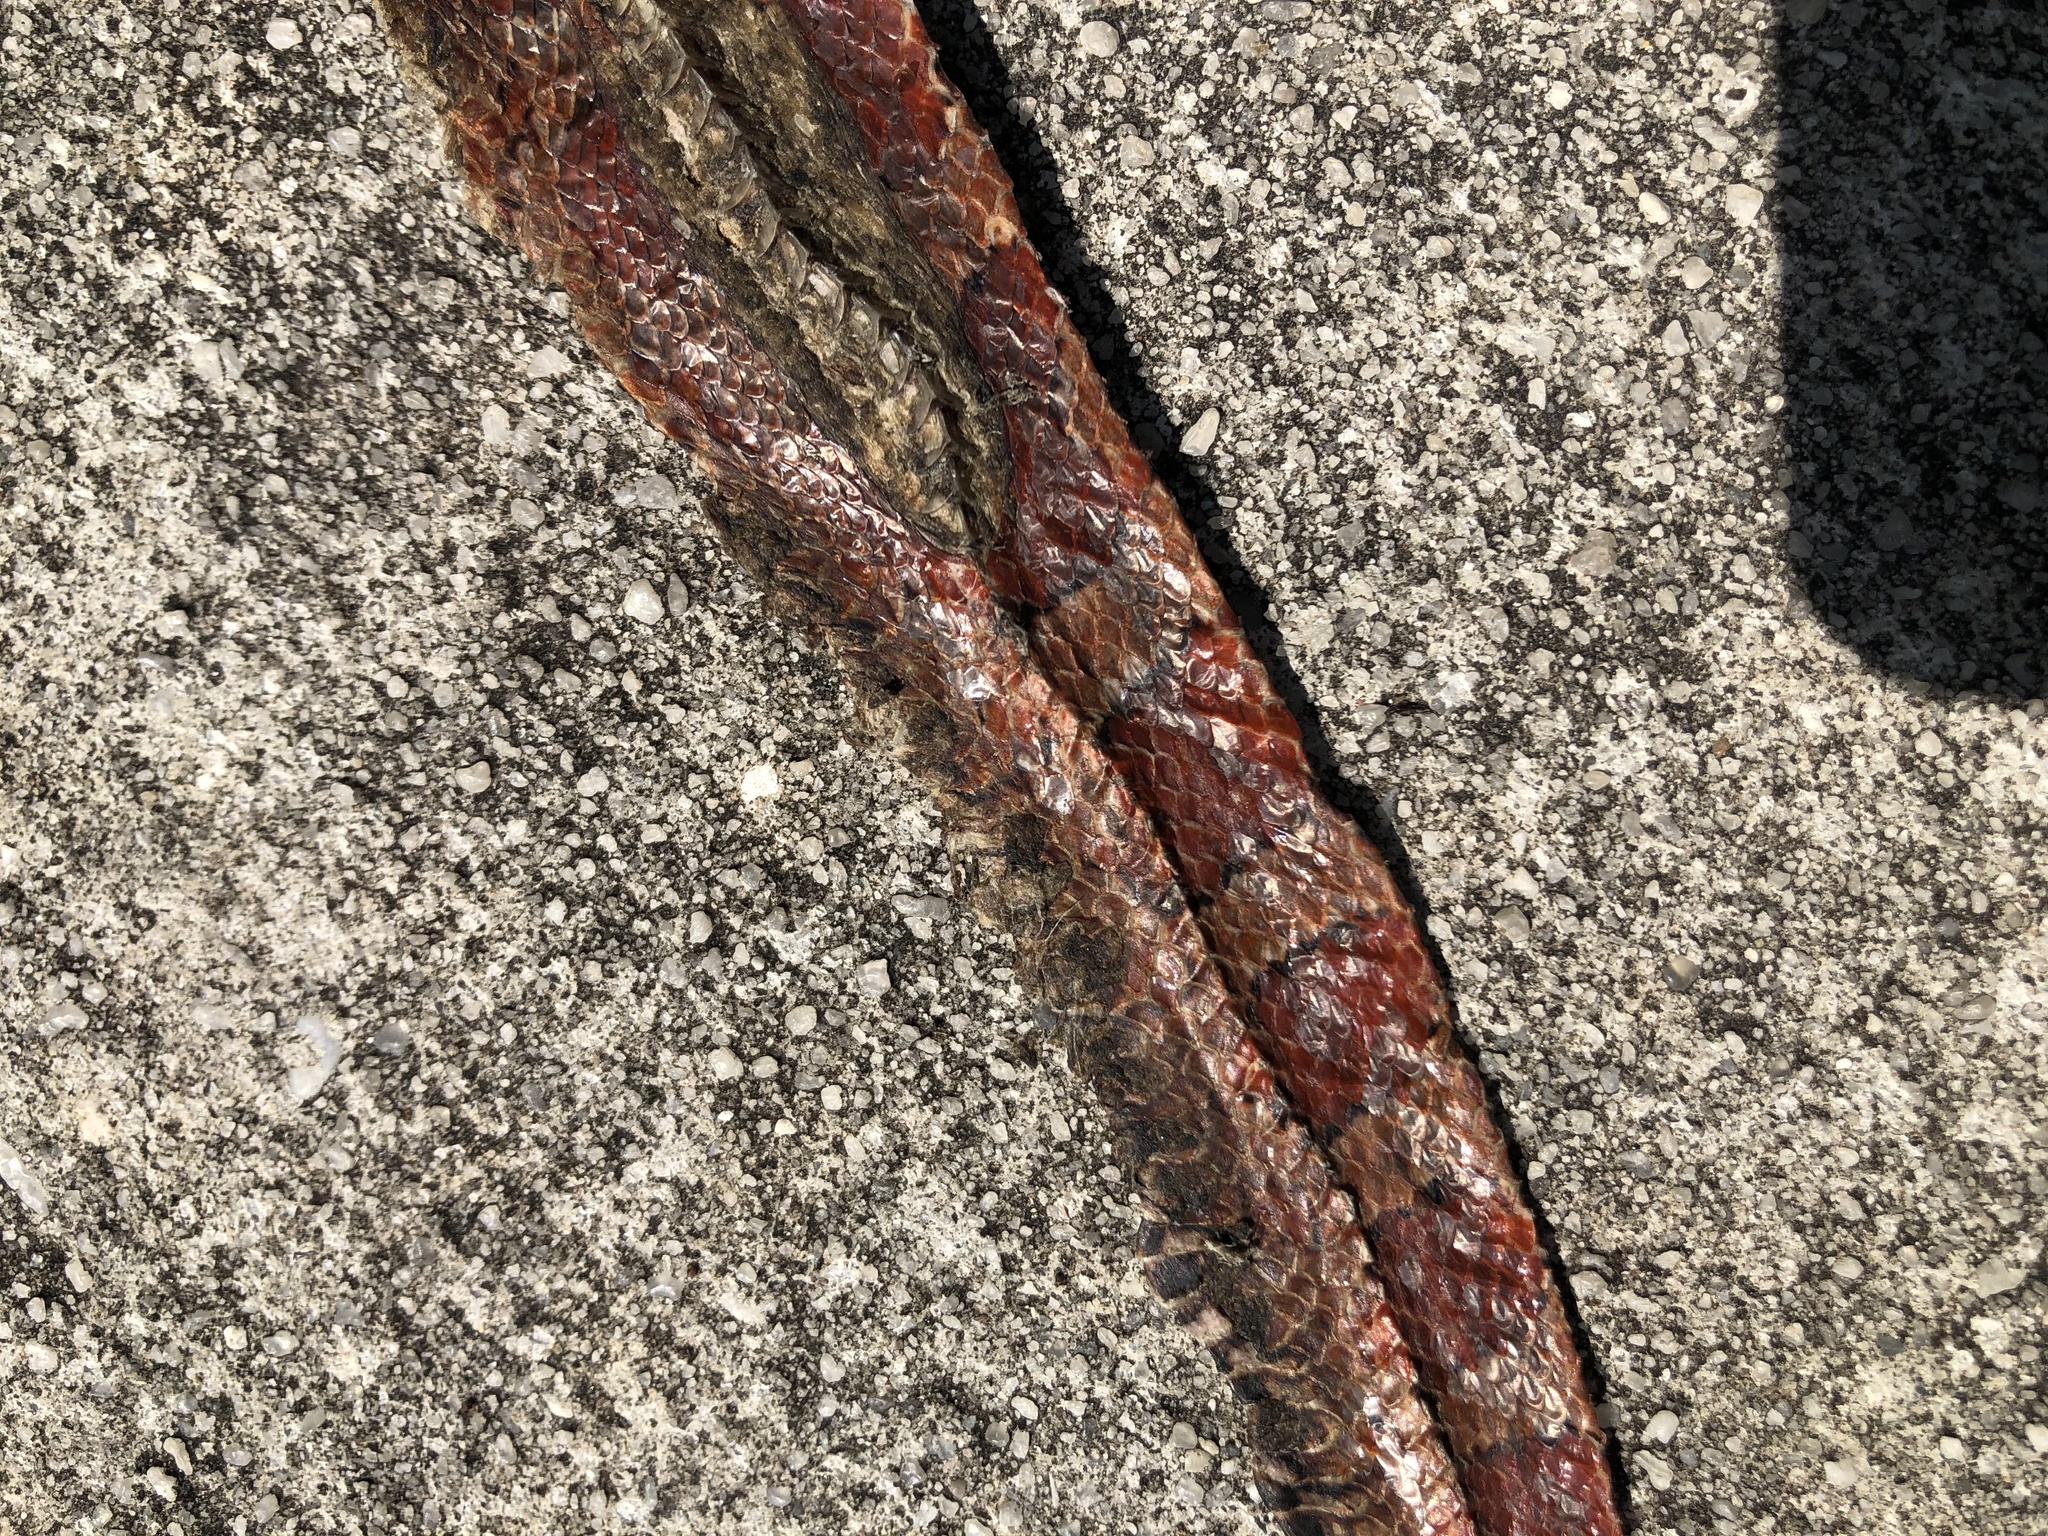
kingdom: Animalia
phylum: Chordata
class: Squamata
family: Colubridae
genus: Pantherophis
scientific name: Pantherophis guttatus
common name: Red cornsnake
